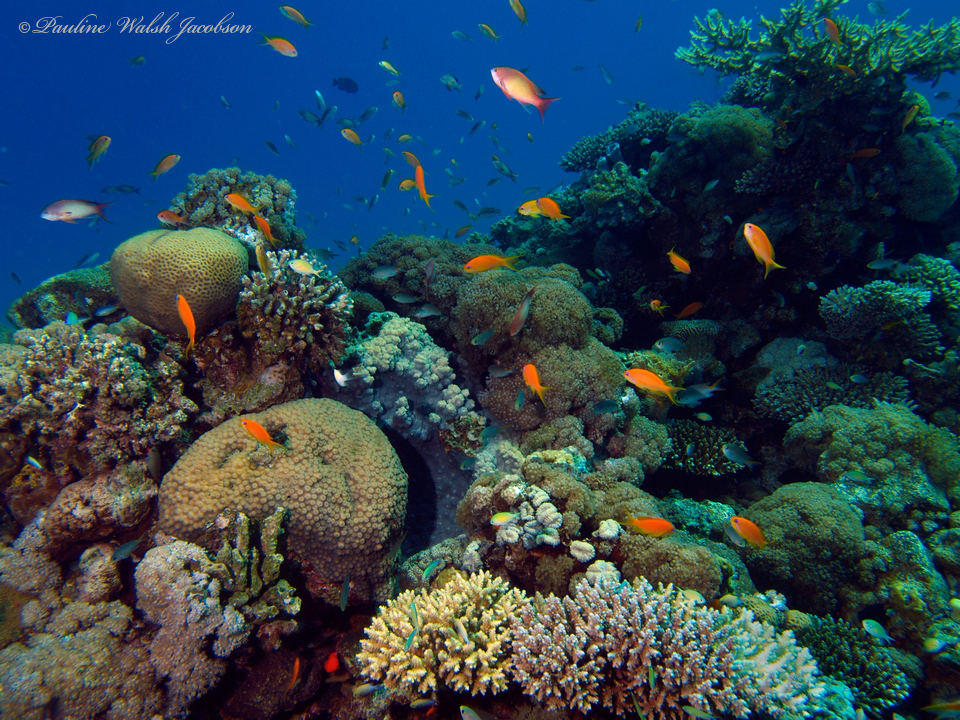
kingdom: Animalia
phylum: Chordata
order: Perciformes
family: Serranidae
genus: Pseudanthias
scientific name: Pseudanthias squamipinnis
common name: Scalefin anthias
